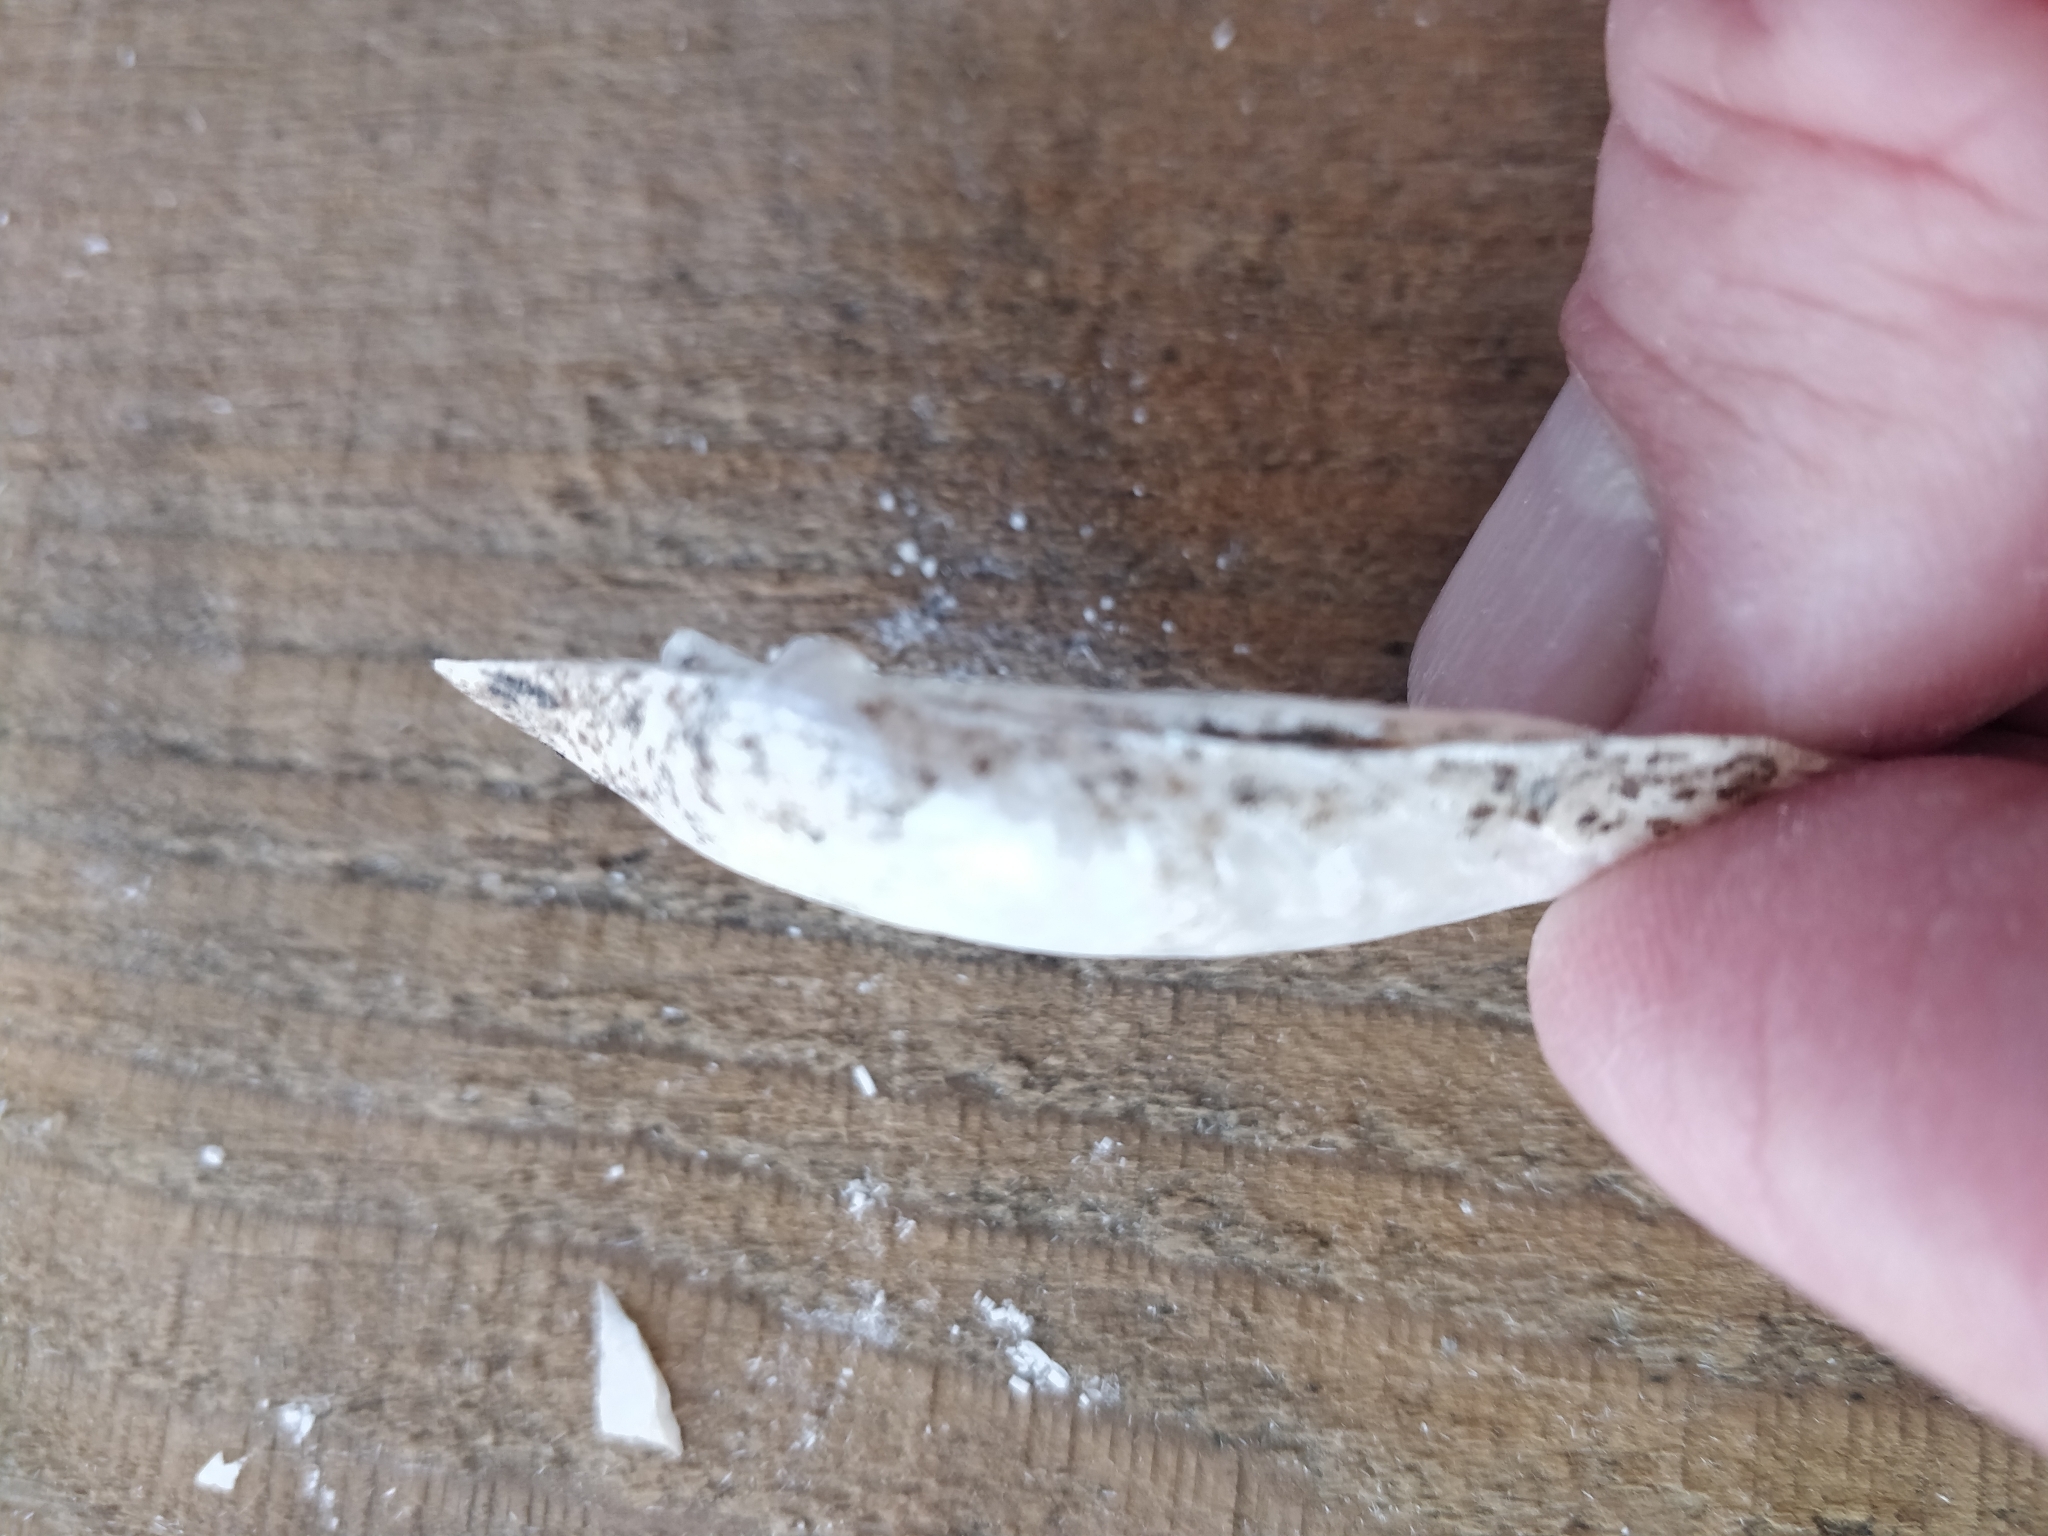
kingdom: Animalia
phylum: Mollusca
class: Bivalvia
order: Unionida
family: Unionidae
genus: Lampsilis
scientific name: Lampsilis siliquoidea
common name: Fatmucket
